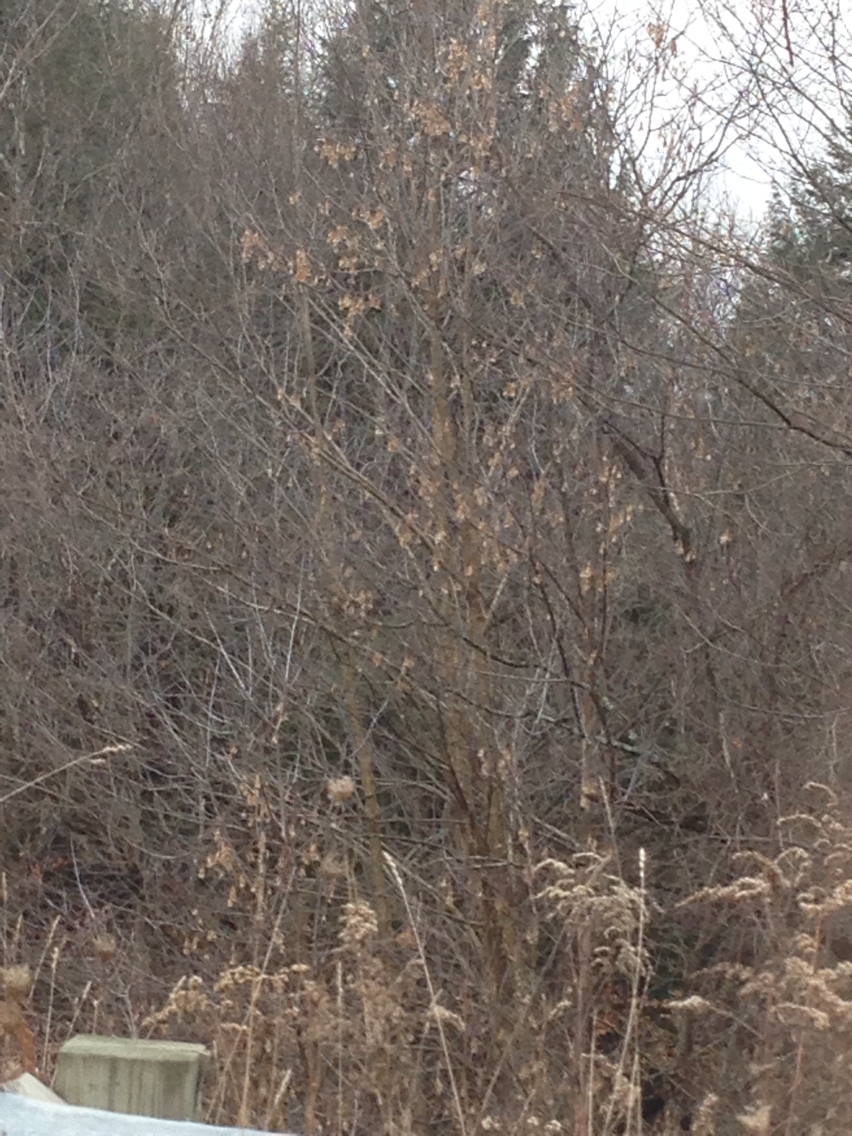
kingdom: Plantae
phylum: Tracheophyta
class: Magnoliopsida
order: Sapindales
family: Sapindaceae
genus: Acer
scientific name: Acer negundo
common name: Ashleaf maple
